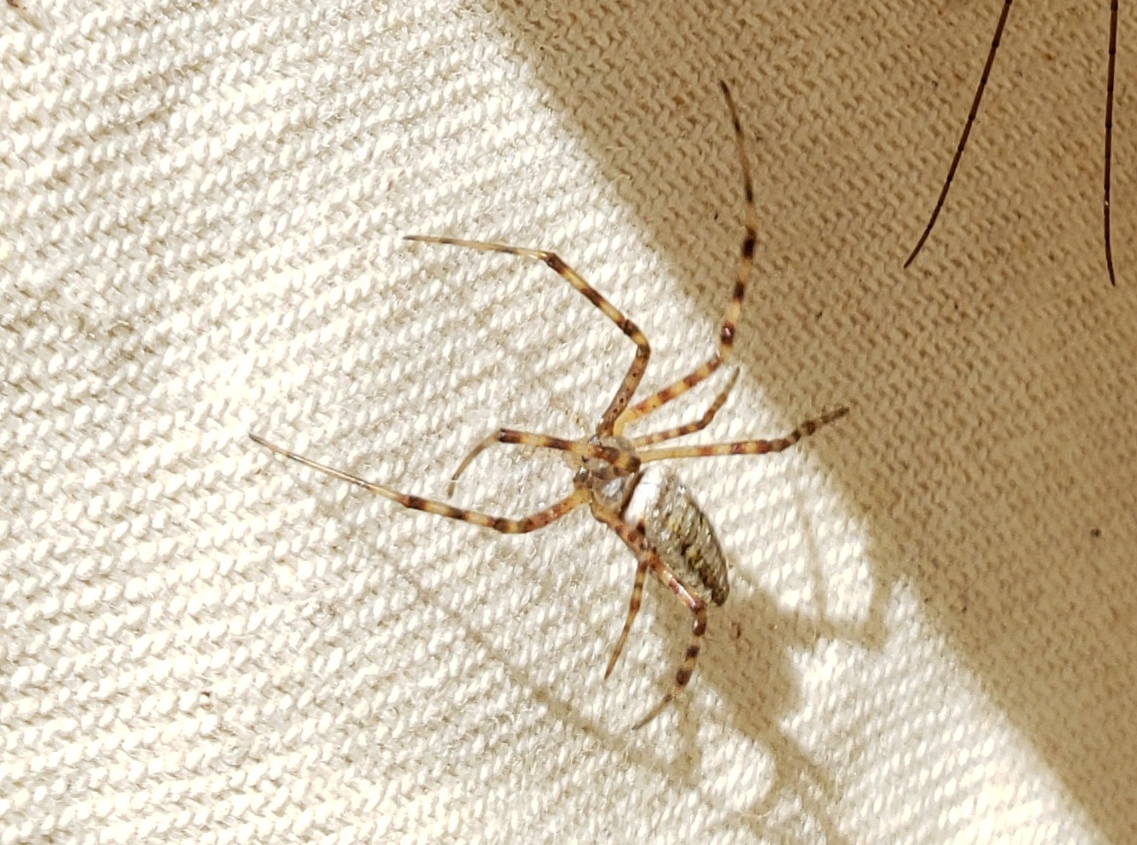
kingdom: Animalia
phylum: Arthropoda
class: Arachnida
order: Araneae
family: Araneidae
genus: Argiope
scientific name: Argiope trifasciata
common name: Banded garden spider
